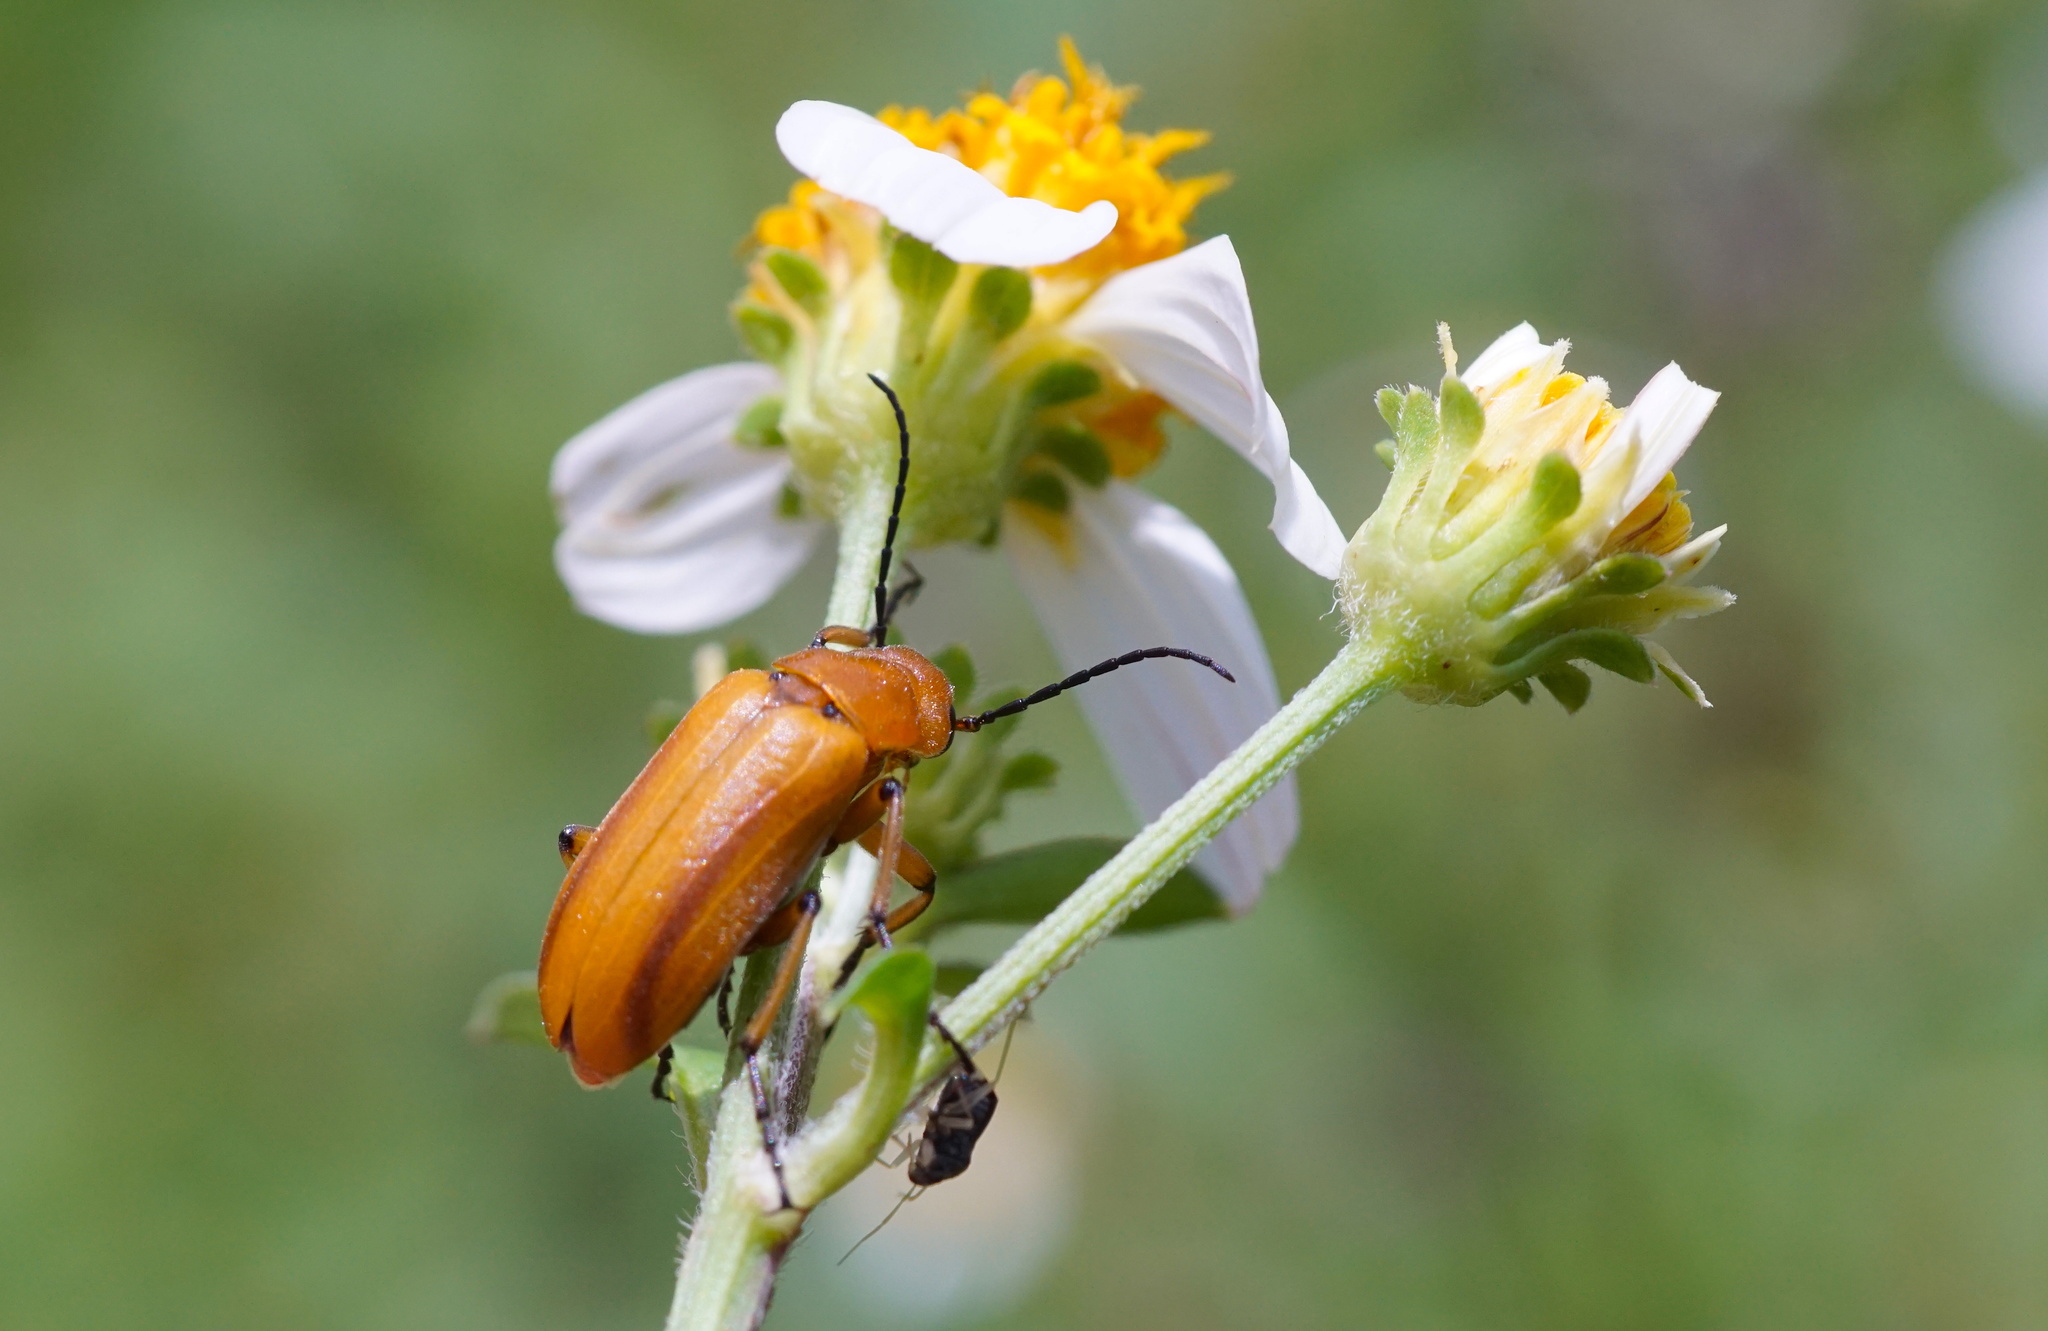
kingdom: Animalia
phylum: Arthropoda
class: Insecta
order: Coleoptera
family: Meloidae
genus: Nemognatha
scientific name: Nemognatha punctulata
